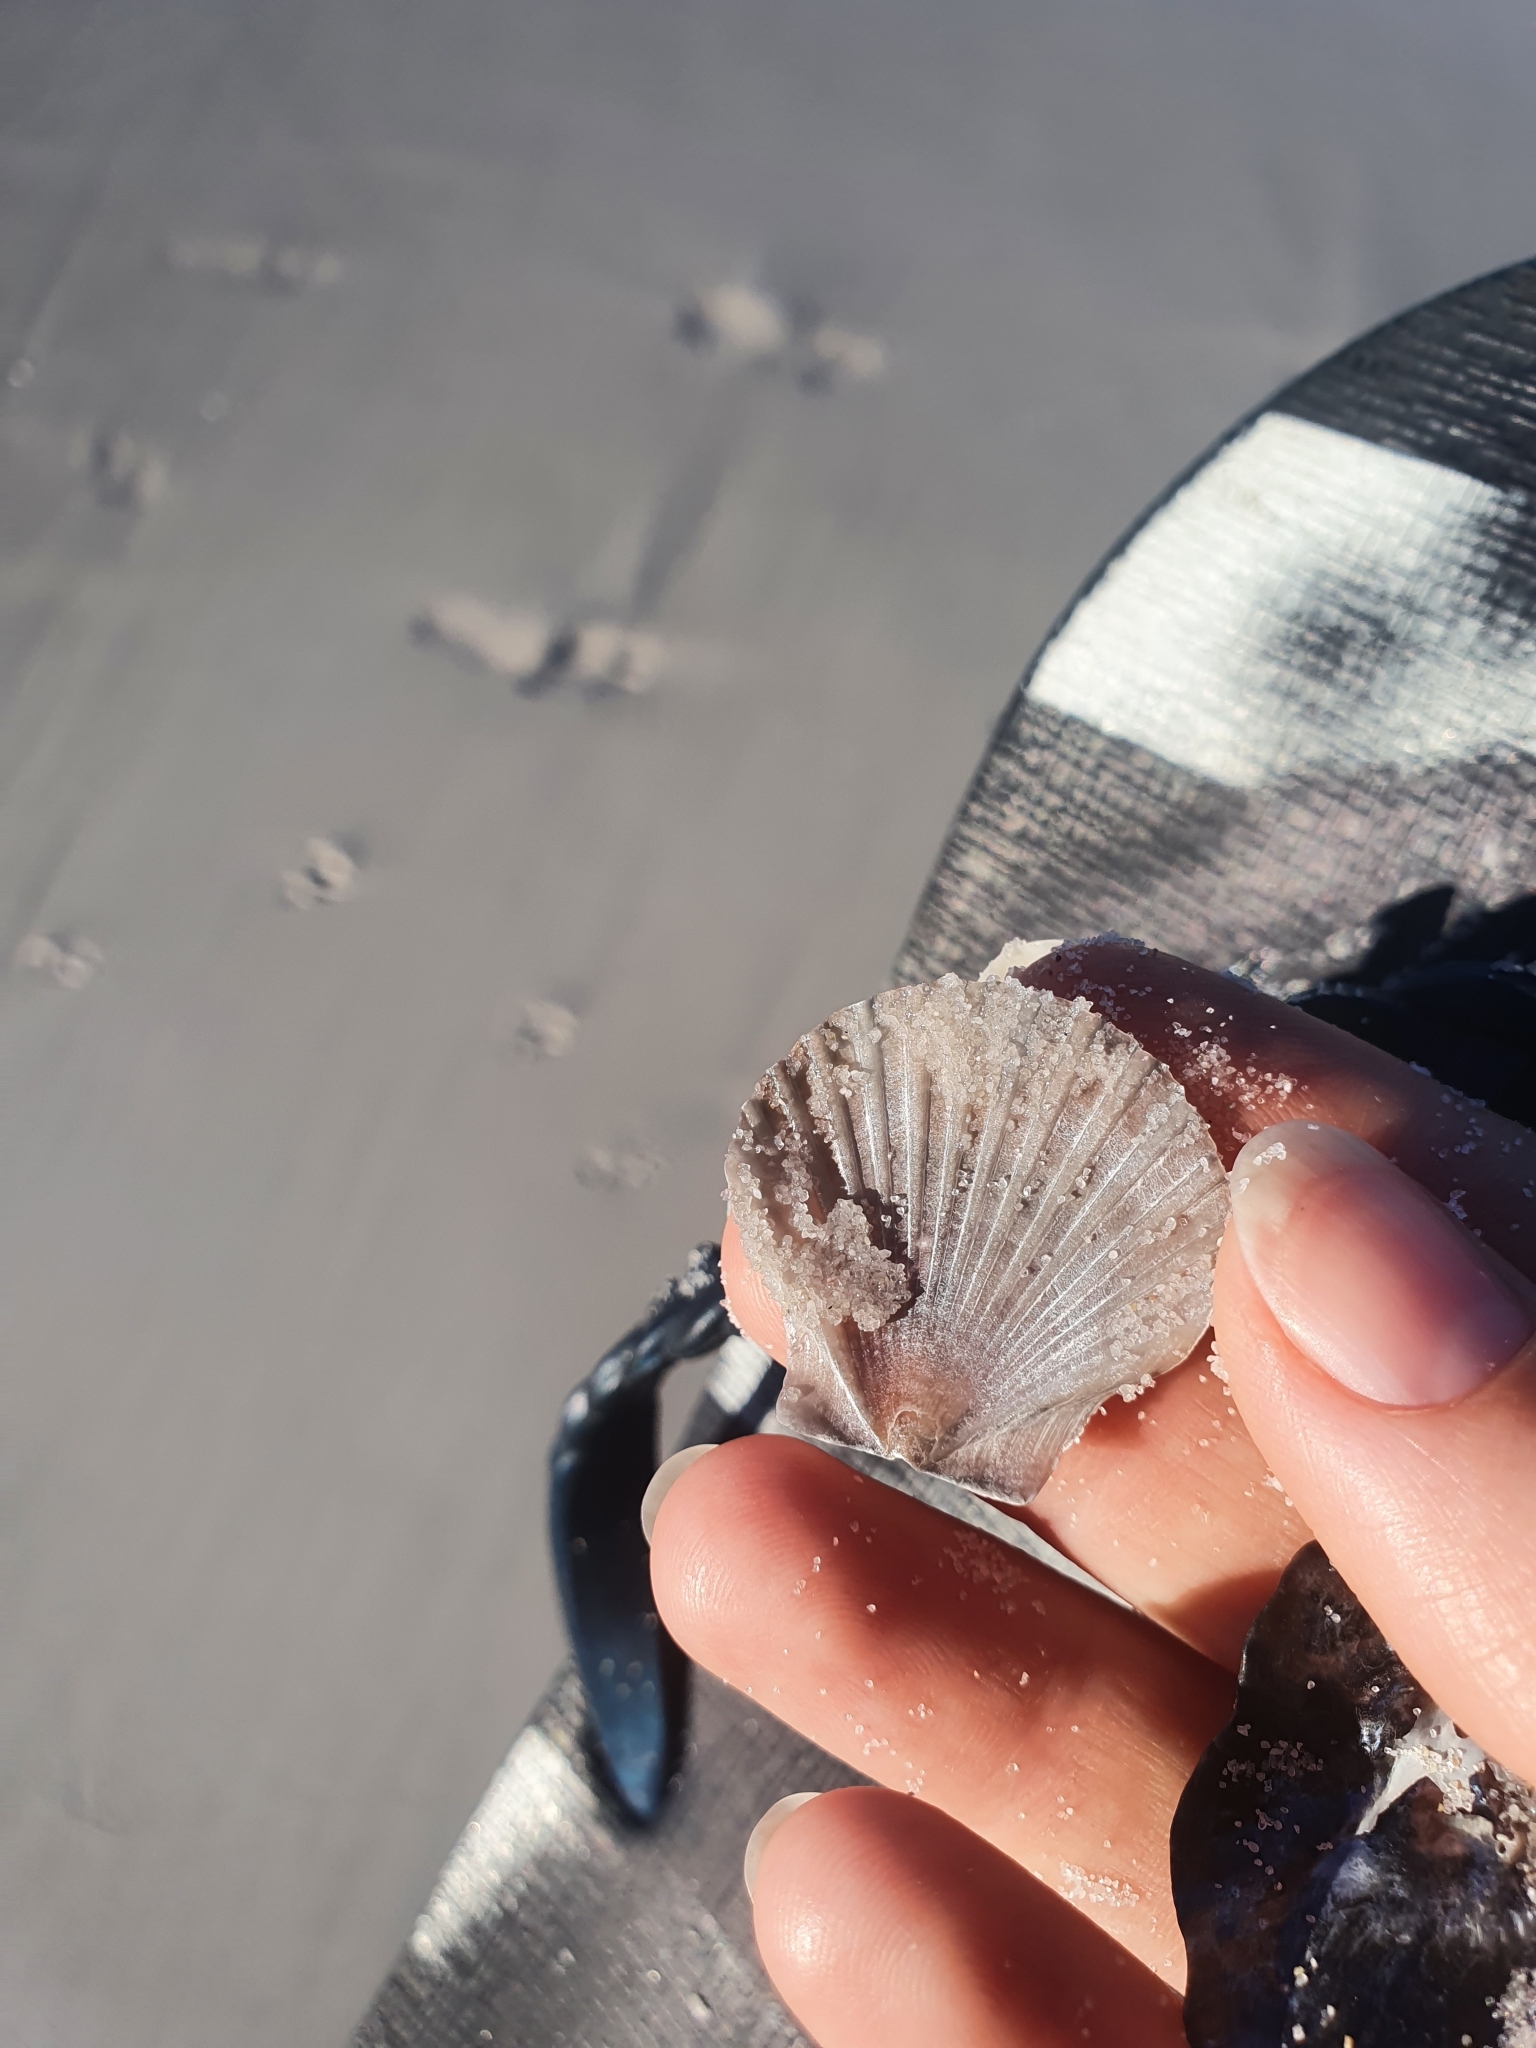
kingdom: Animalia
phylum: Mollusca
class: Bivalvia
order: Pectinida
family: Pectinidae
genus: Pecten
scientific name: Pecten fumatus
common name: Australian scallop
